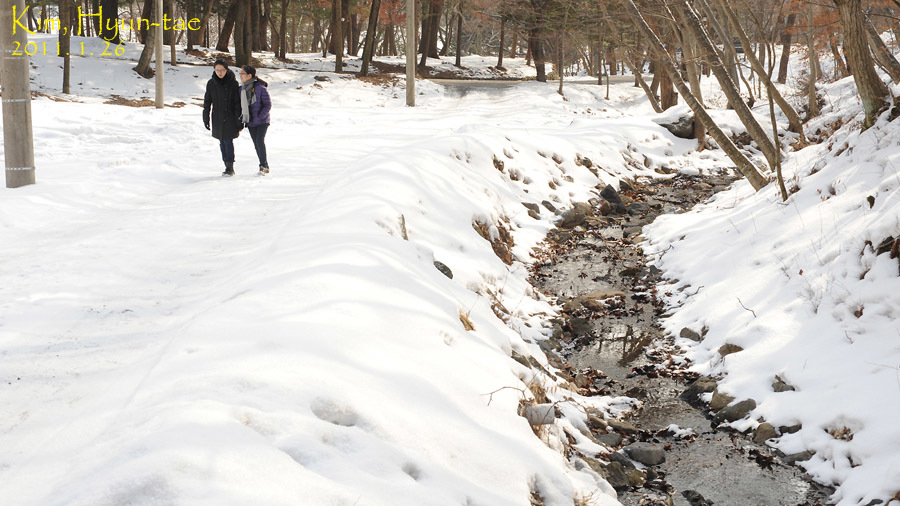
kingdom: Animalia
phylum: Chordata
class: Amphibia
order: Anura
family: Ranidae
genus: Rana
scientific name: Rana uenoi
